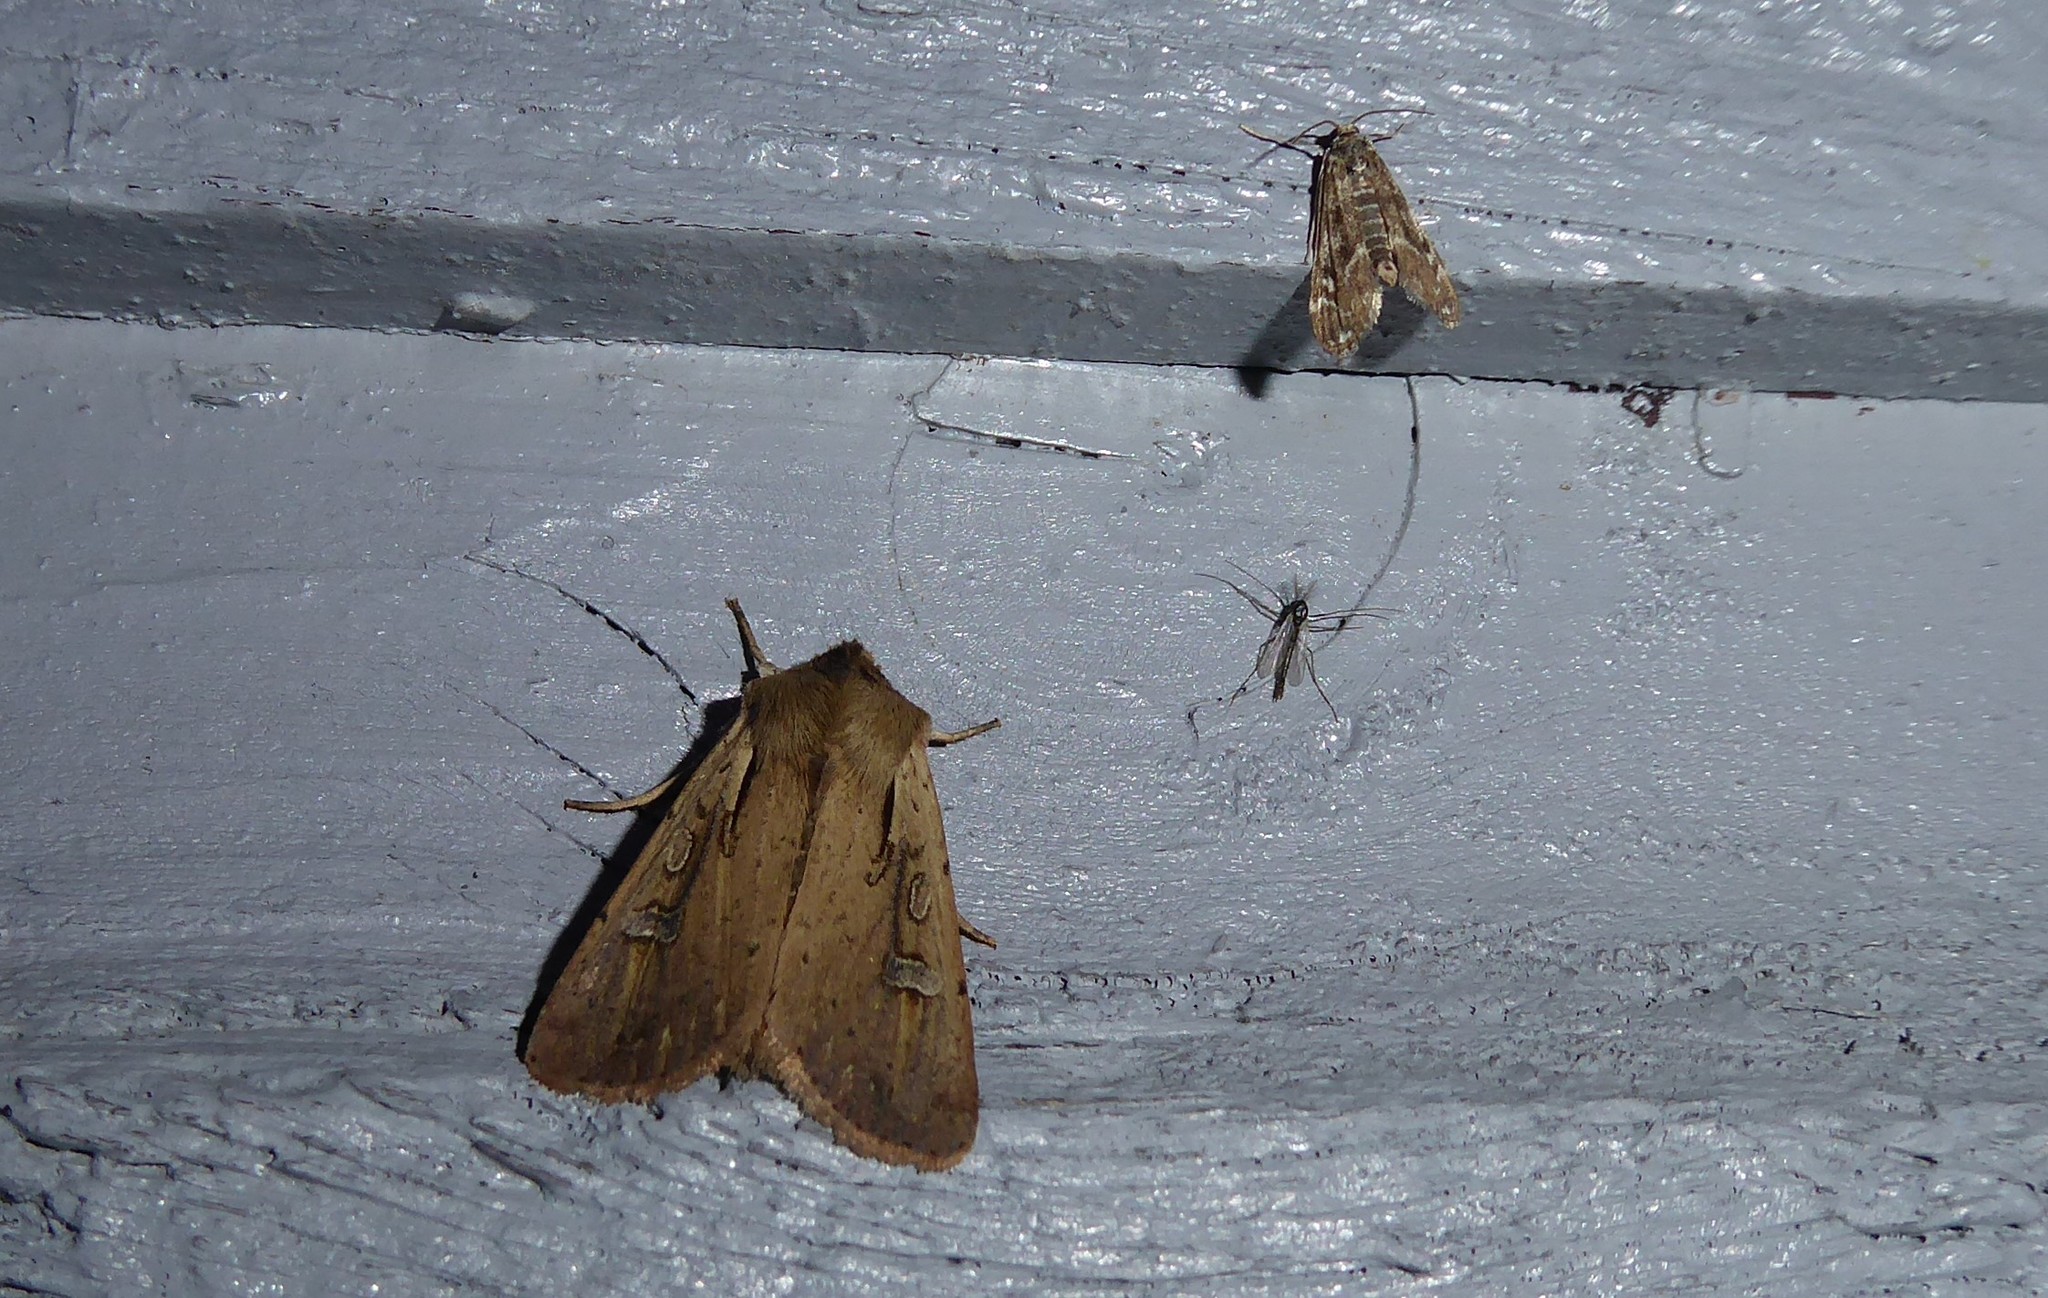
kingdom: Animalia
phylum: Arthropoda
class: Insecta
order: Lepidoptera
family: Noctuidae
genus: Ichneutica
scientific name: Ichneutica atristriga
